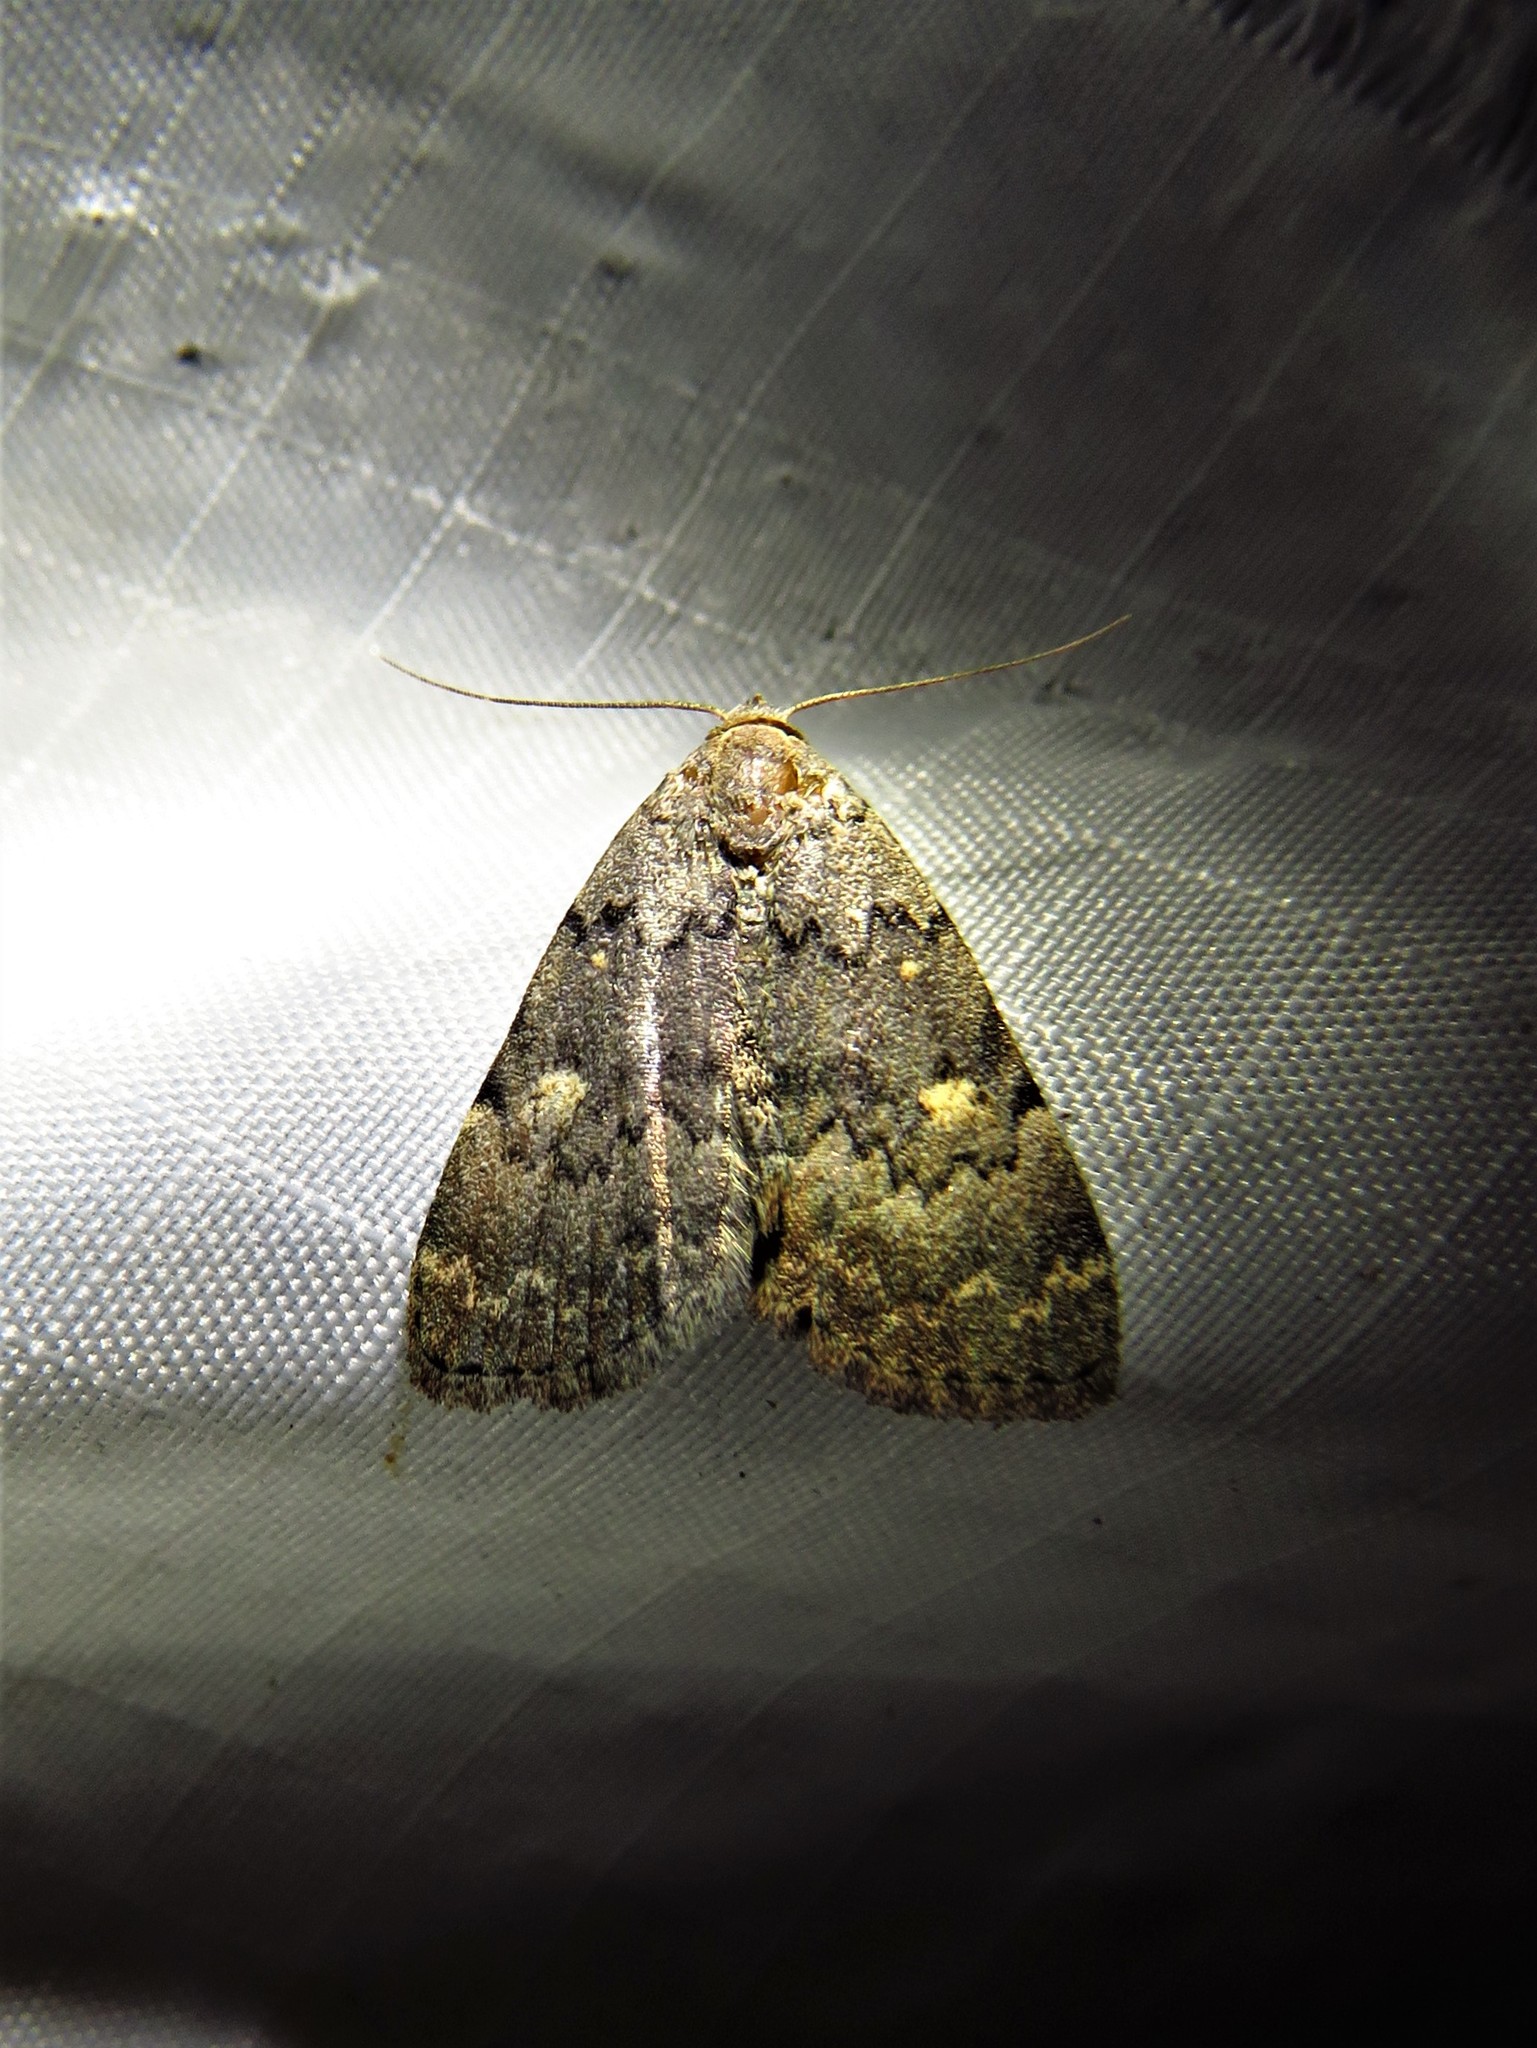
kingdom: Animalia
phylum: Arthropoda
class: Insecta
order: Lepidoptera
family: Erebidae
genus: Idia
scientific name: Idia aemula
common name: Common idia moth
